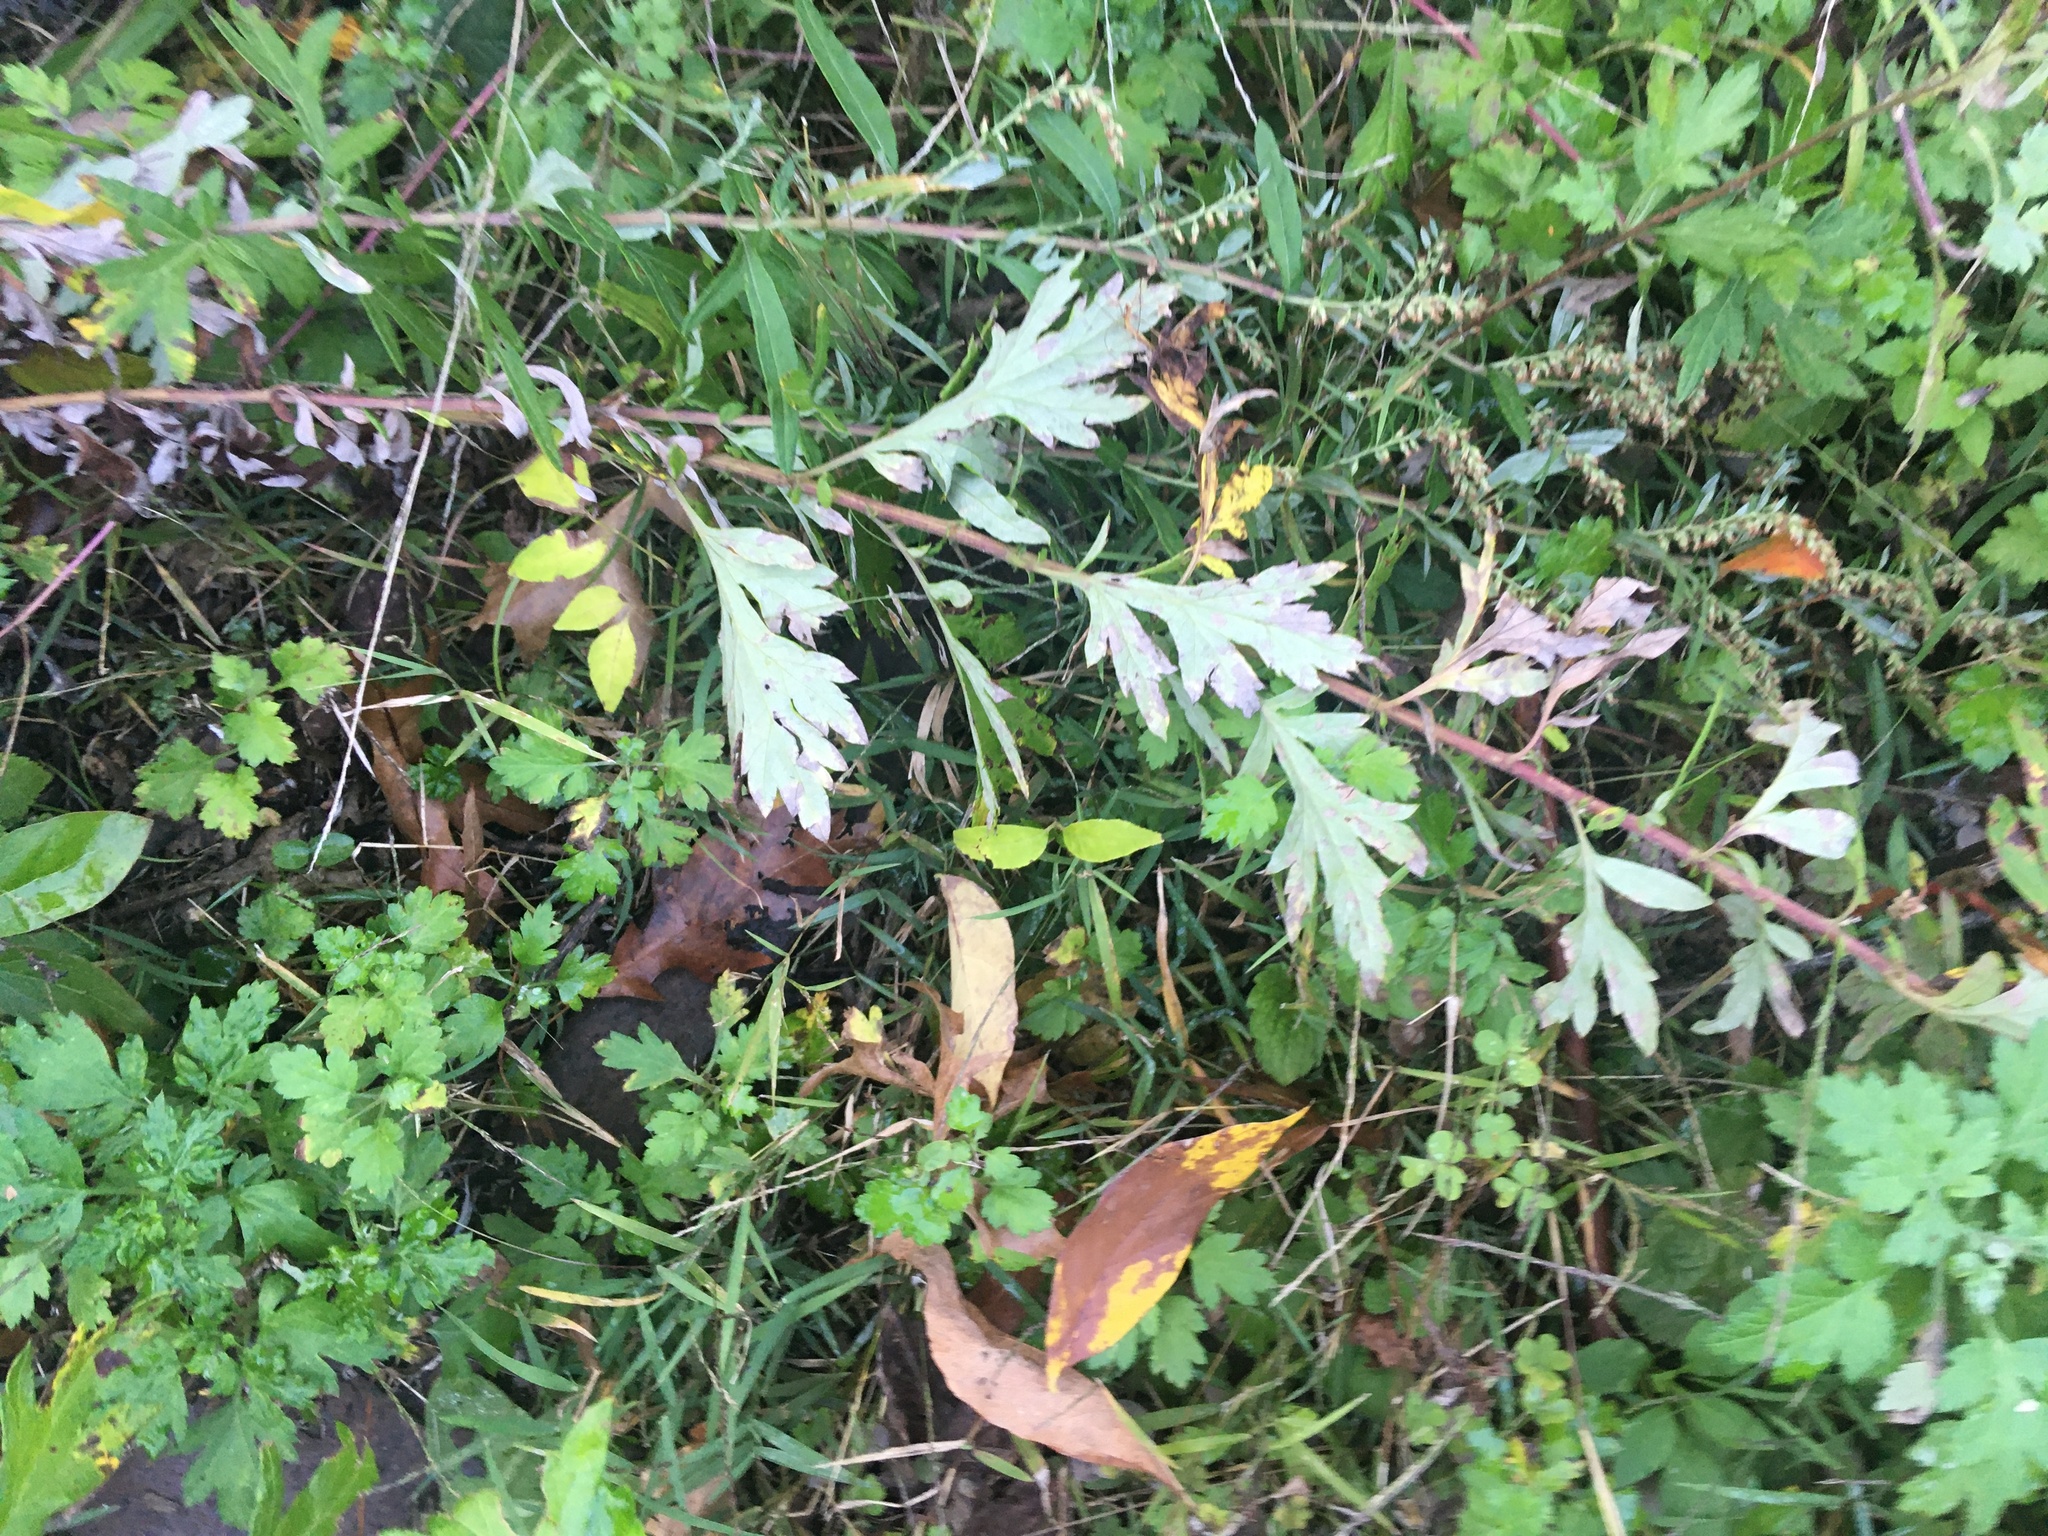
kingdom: Plantae
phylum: Tracheophyta
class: Magnoliopsida
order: Asterales
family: Asteraceae
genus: Artemisia
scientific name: Artemisia vulgaris
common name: Mugwort
